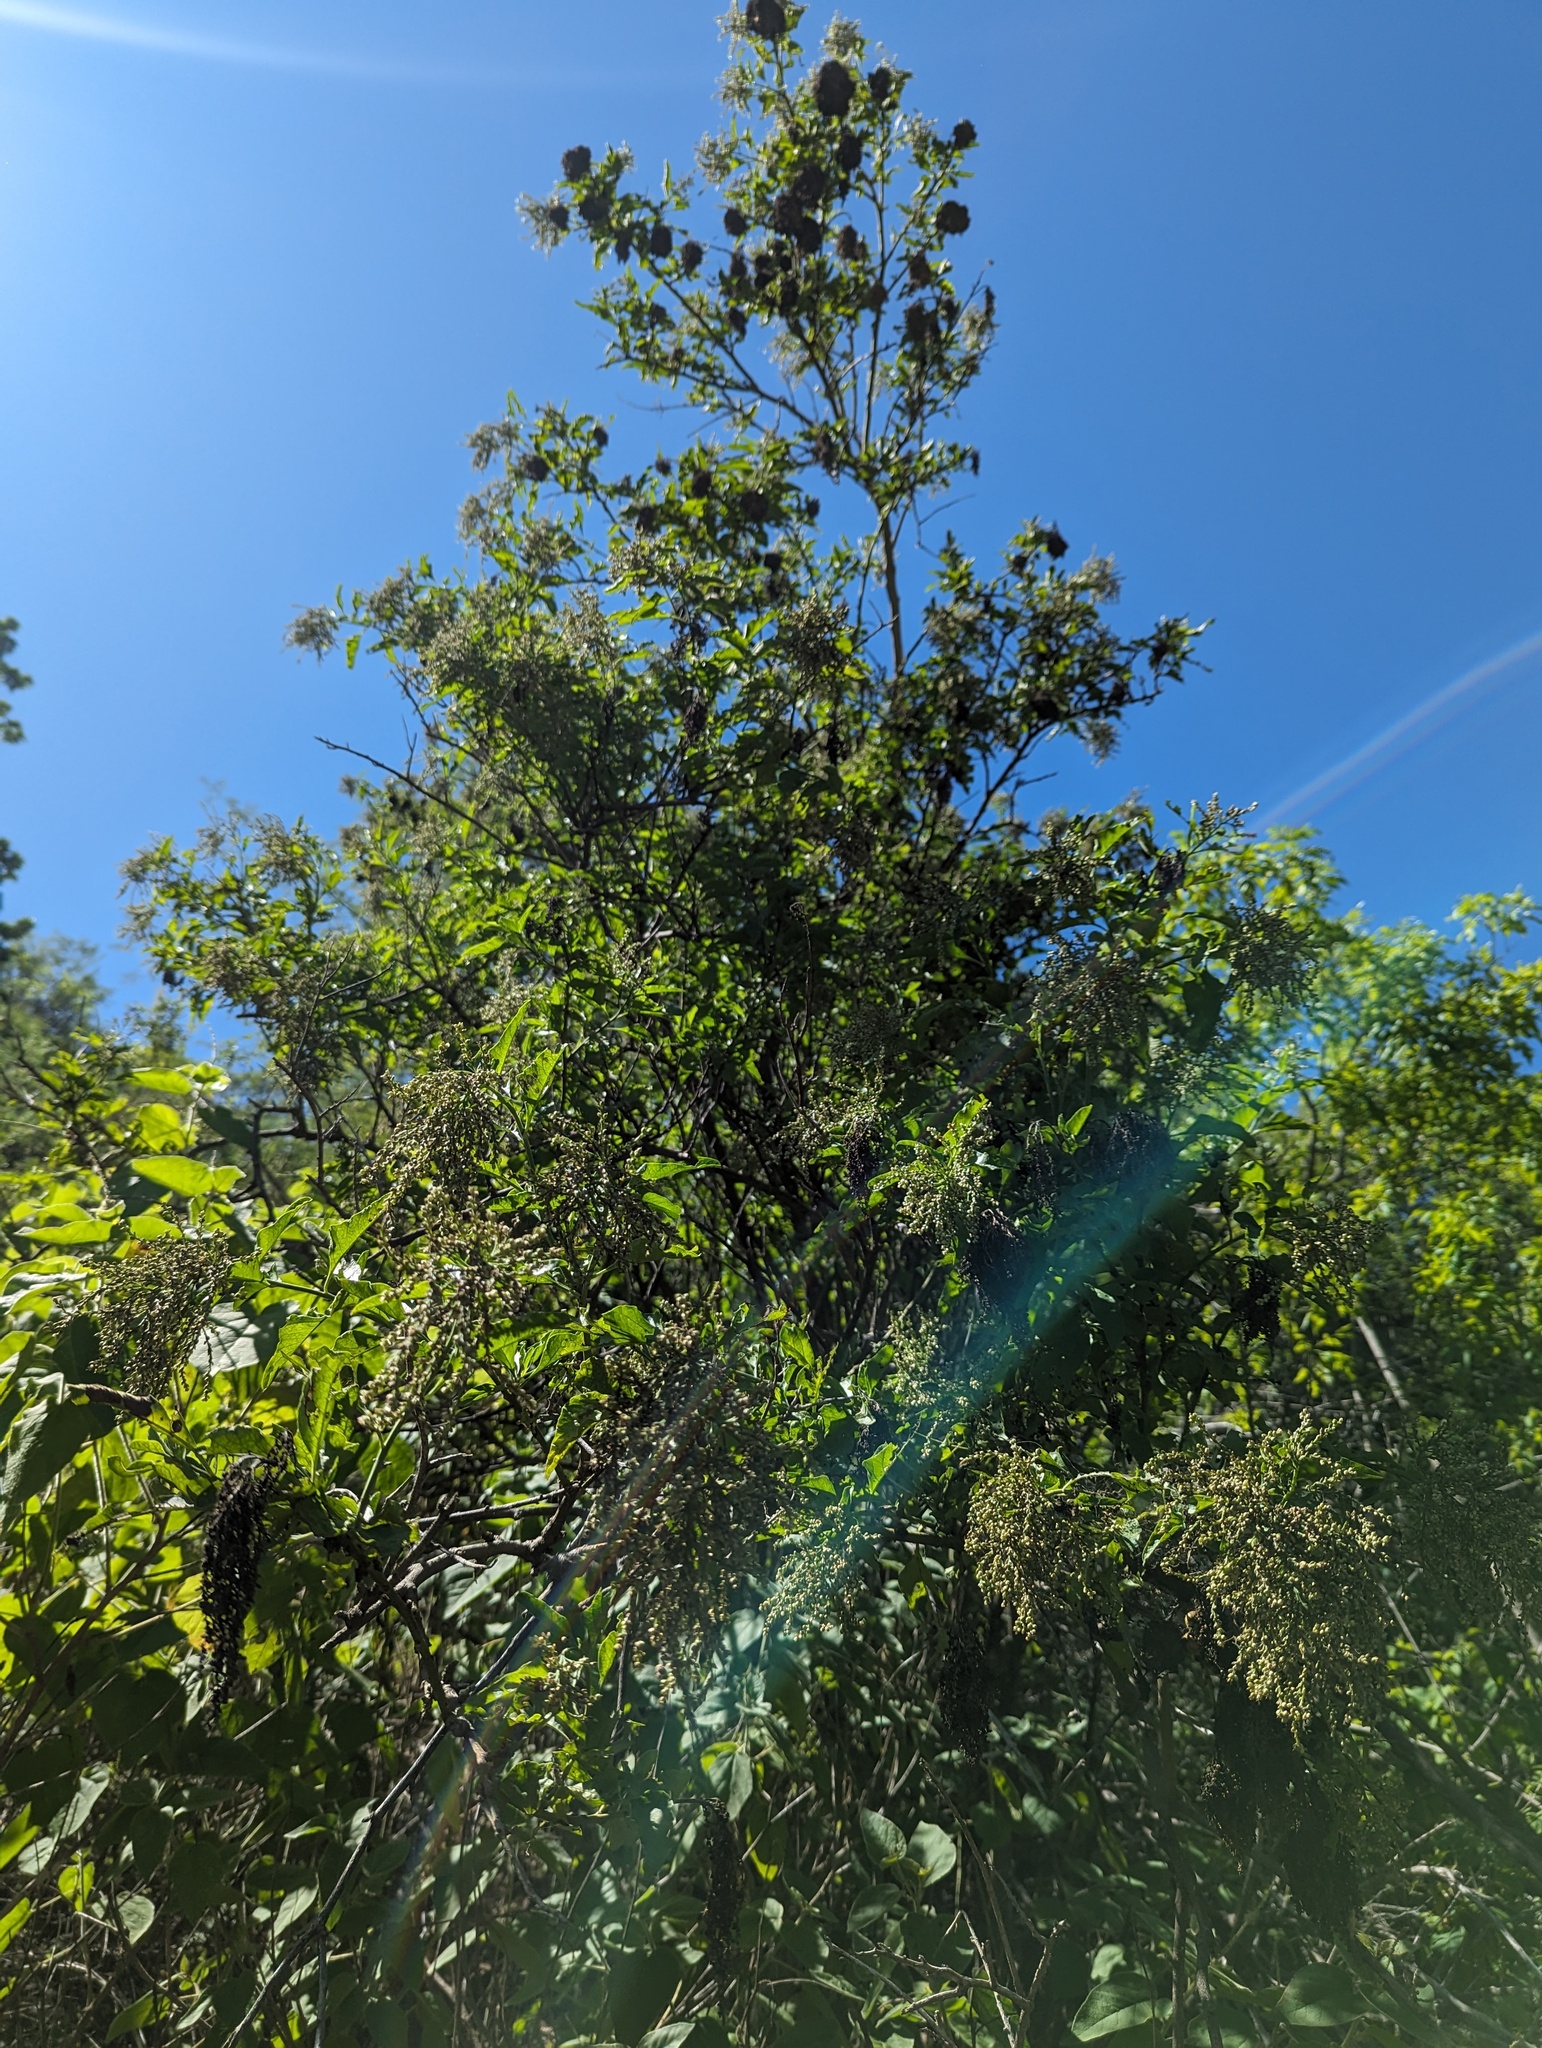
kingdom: Plantae
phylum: Tracheophyta
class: Magnoliopsida
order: Caryophyllales
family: Amaranthaceae
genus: Celosia
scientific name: Celosia floribunda
